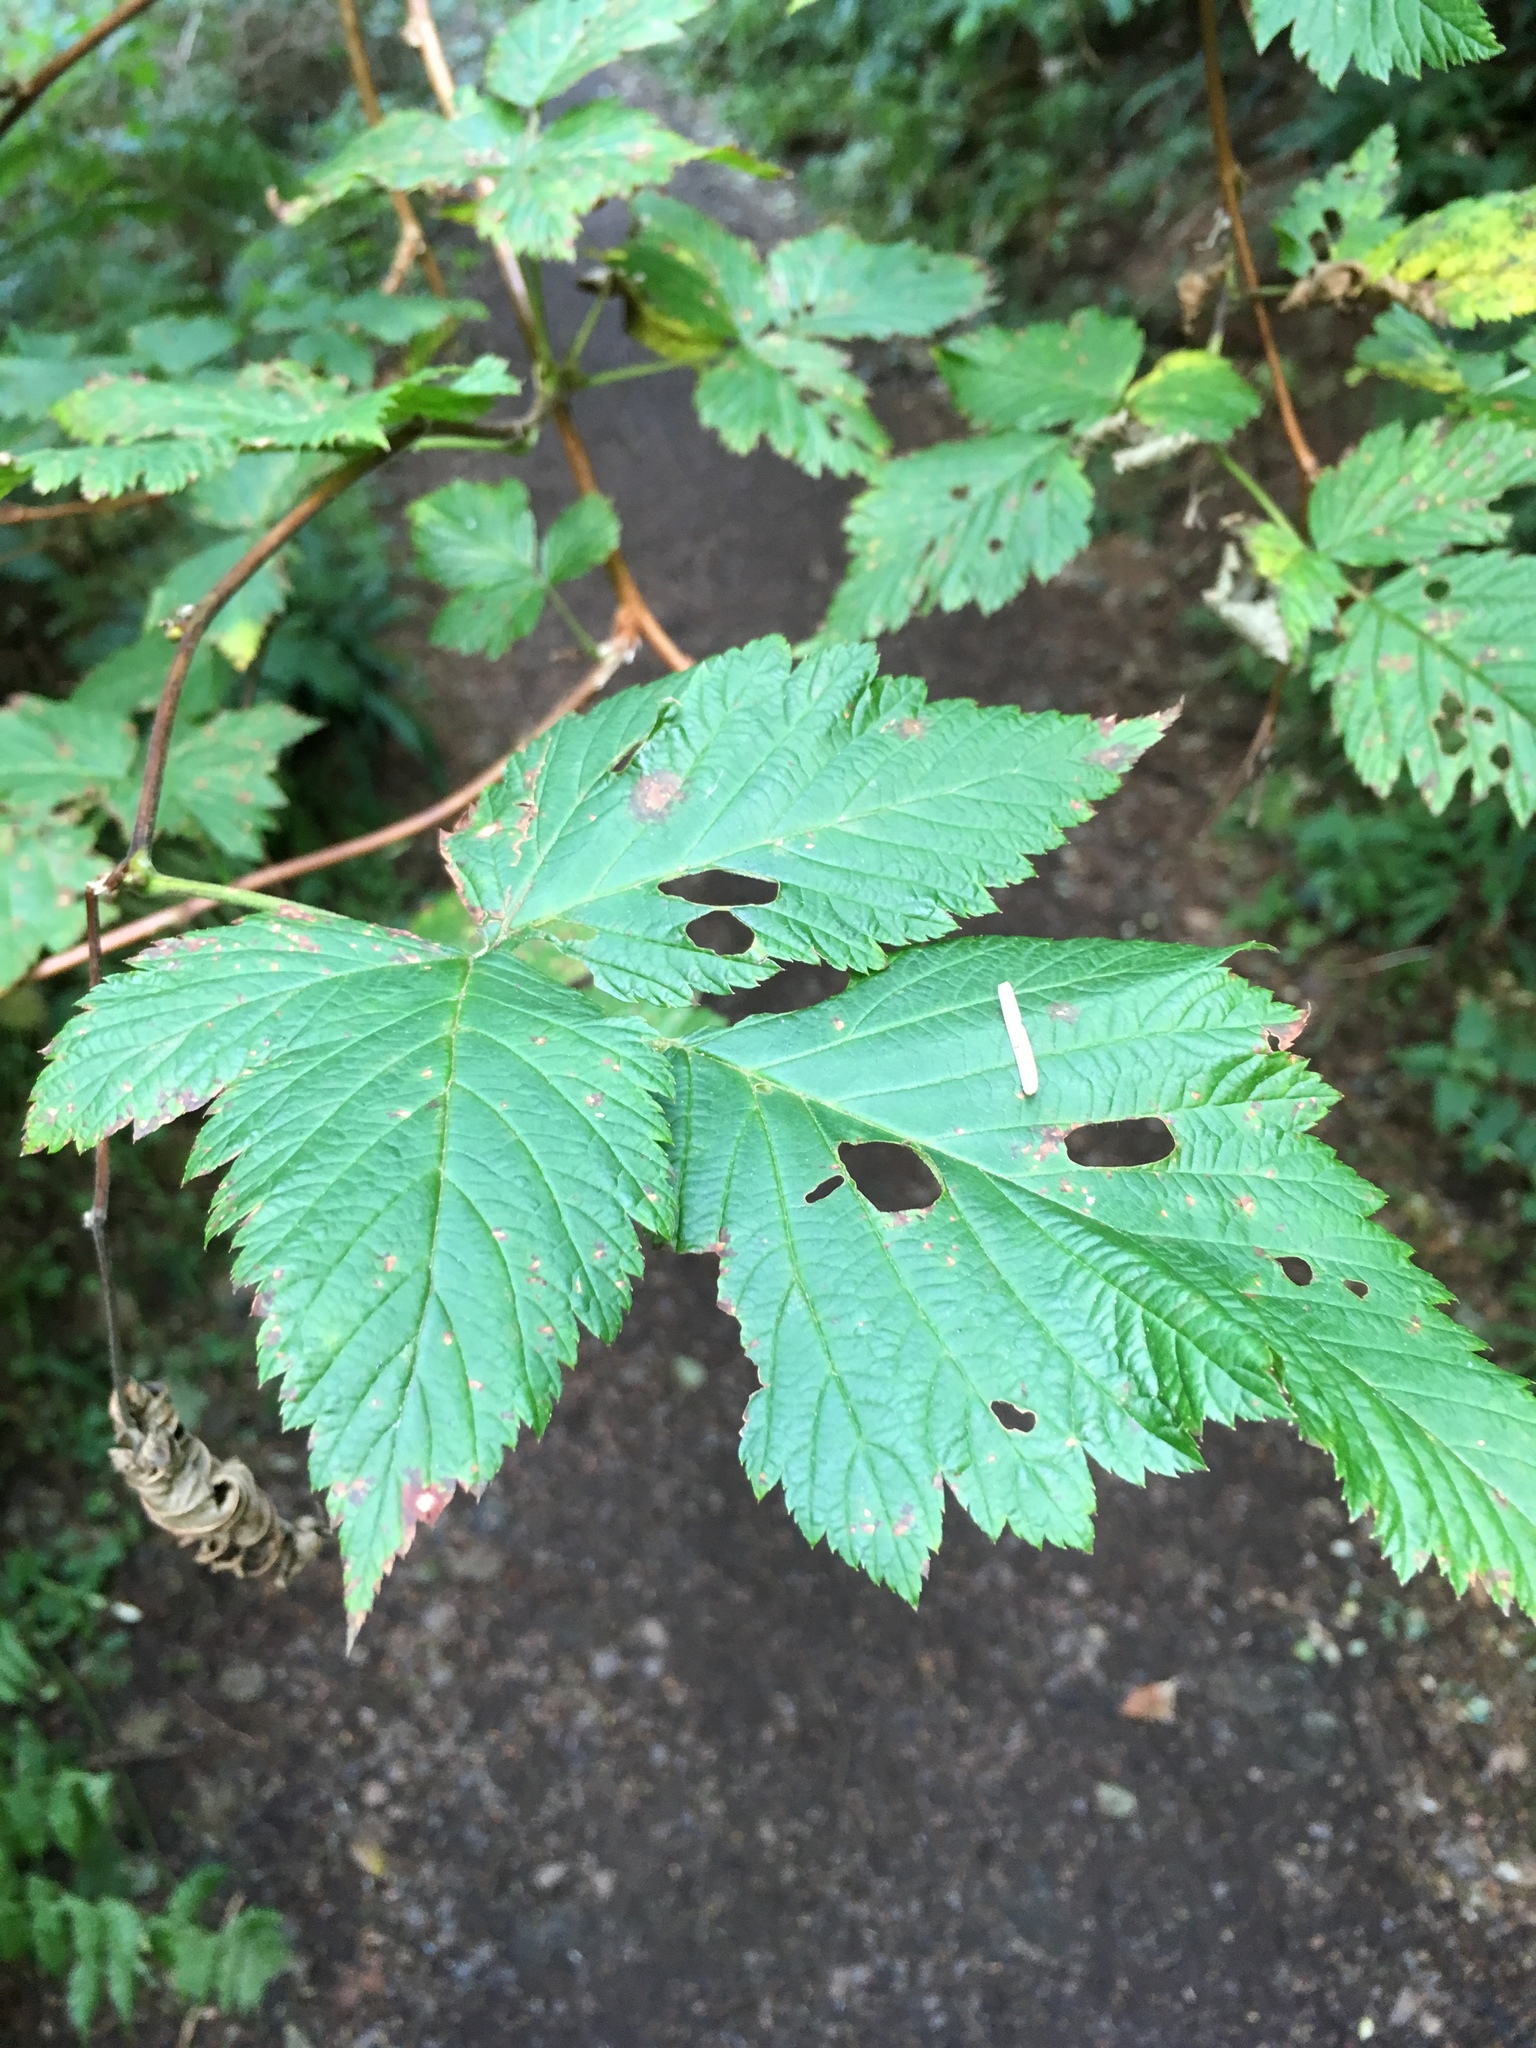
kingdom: Plantae
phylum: Tracheophyta
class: Magnoliopsida
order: Rosales
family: Rosaceae
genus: Rubus
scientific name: Rubus spectabilis
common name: Salmonberry
